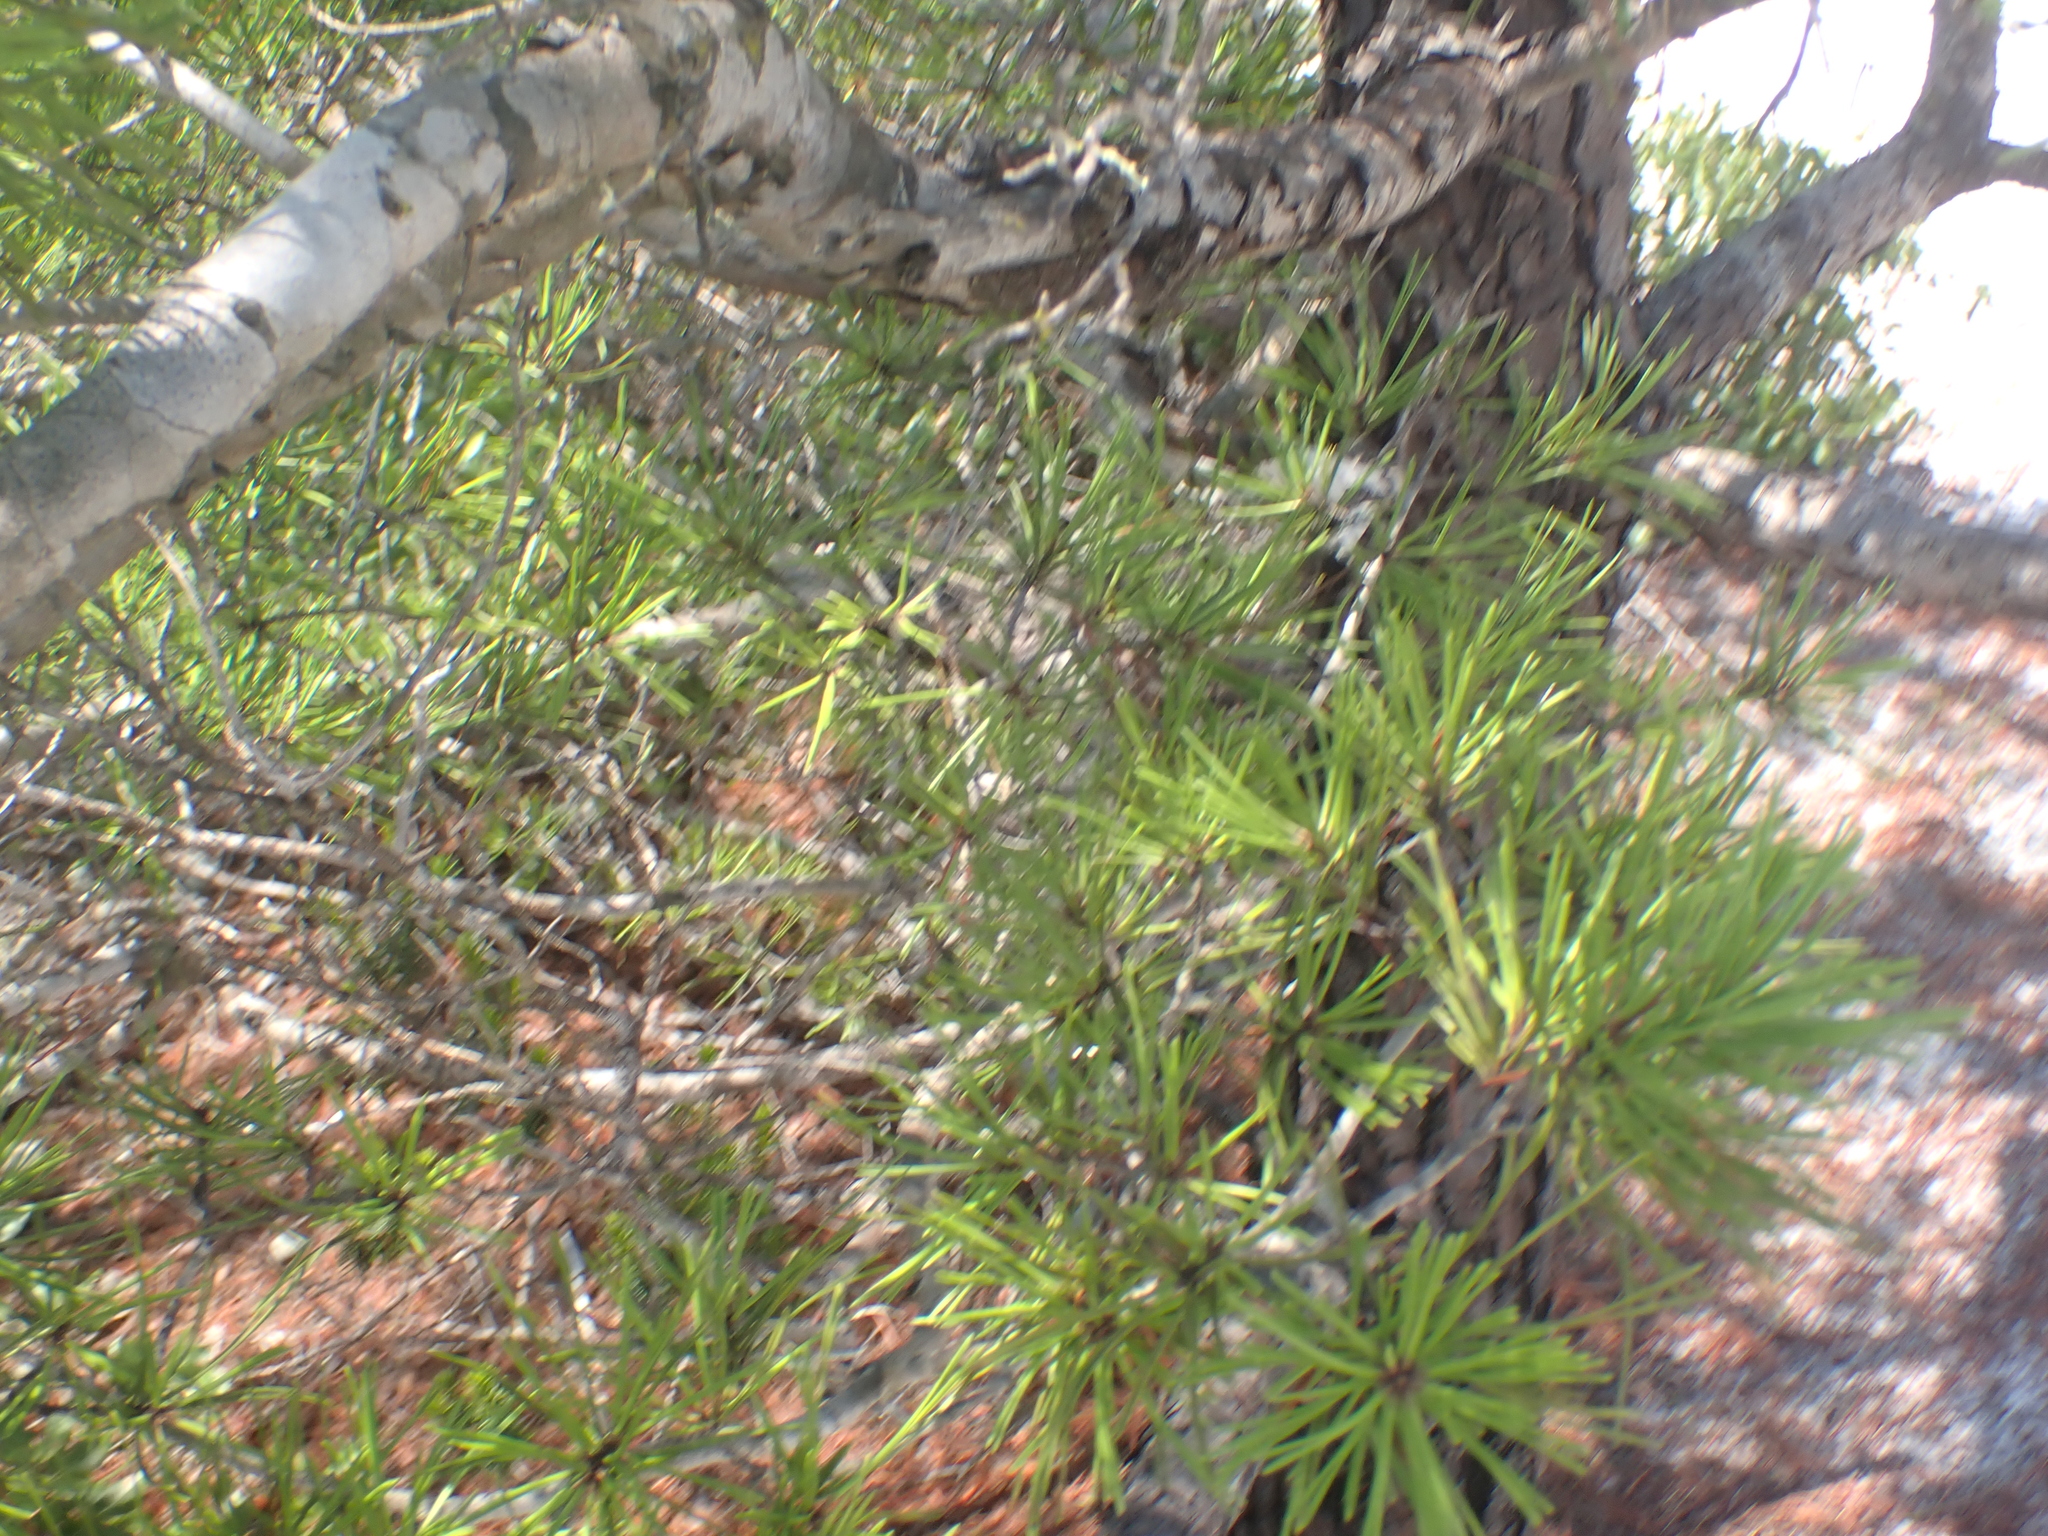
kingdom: Plantae
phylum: Tracheophyta
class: Pinopsida
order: Pinales
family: Pinaceae
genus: Pinus
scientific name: Pinus clausa
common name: Sand pine
